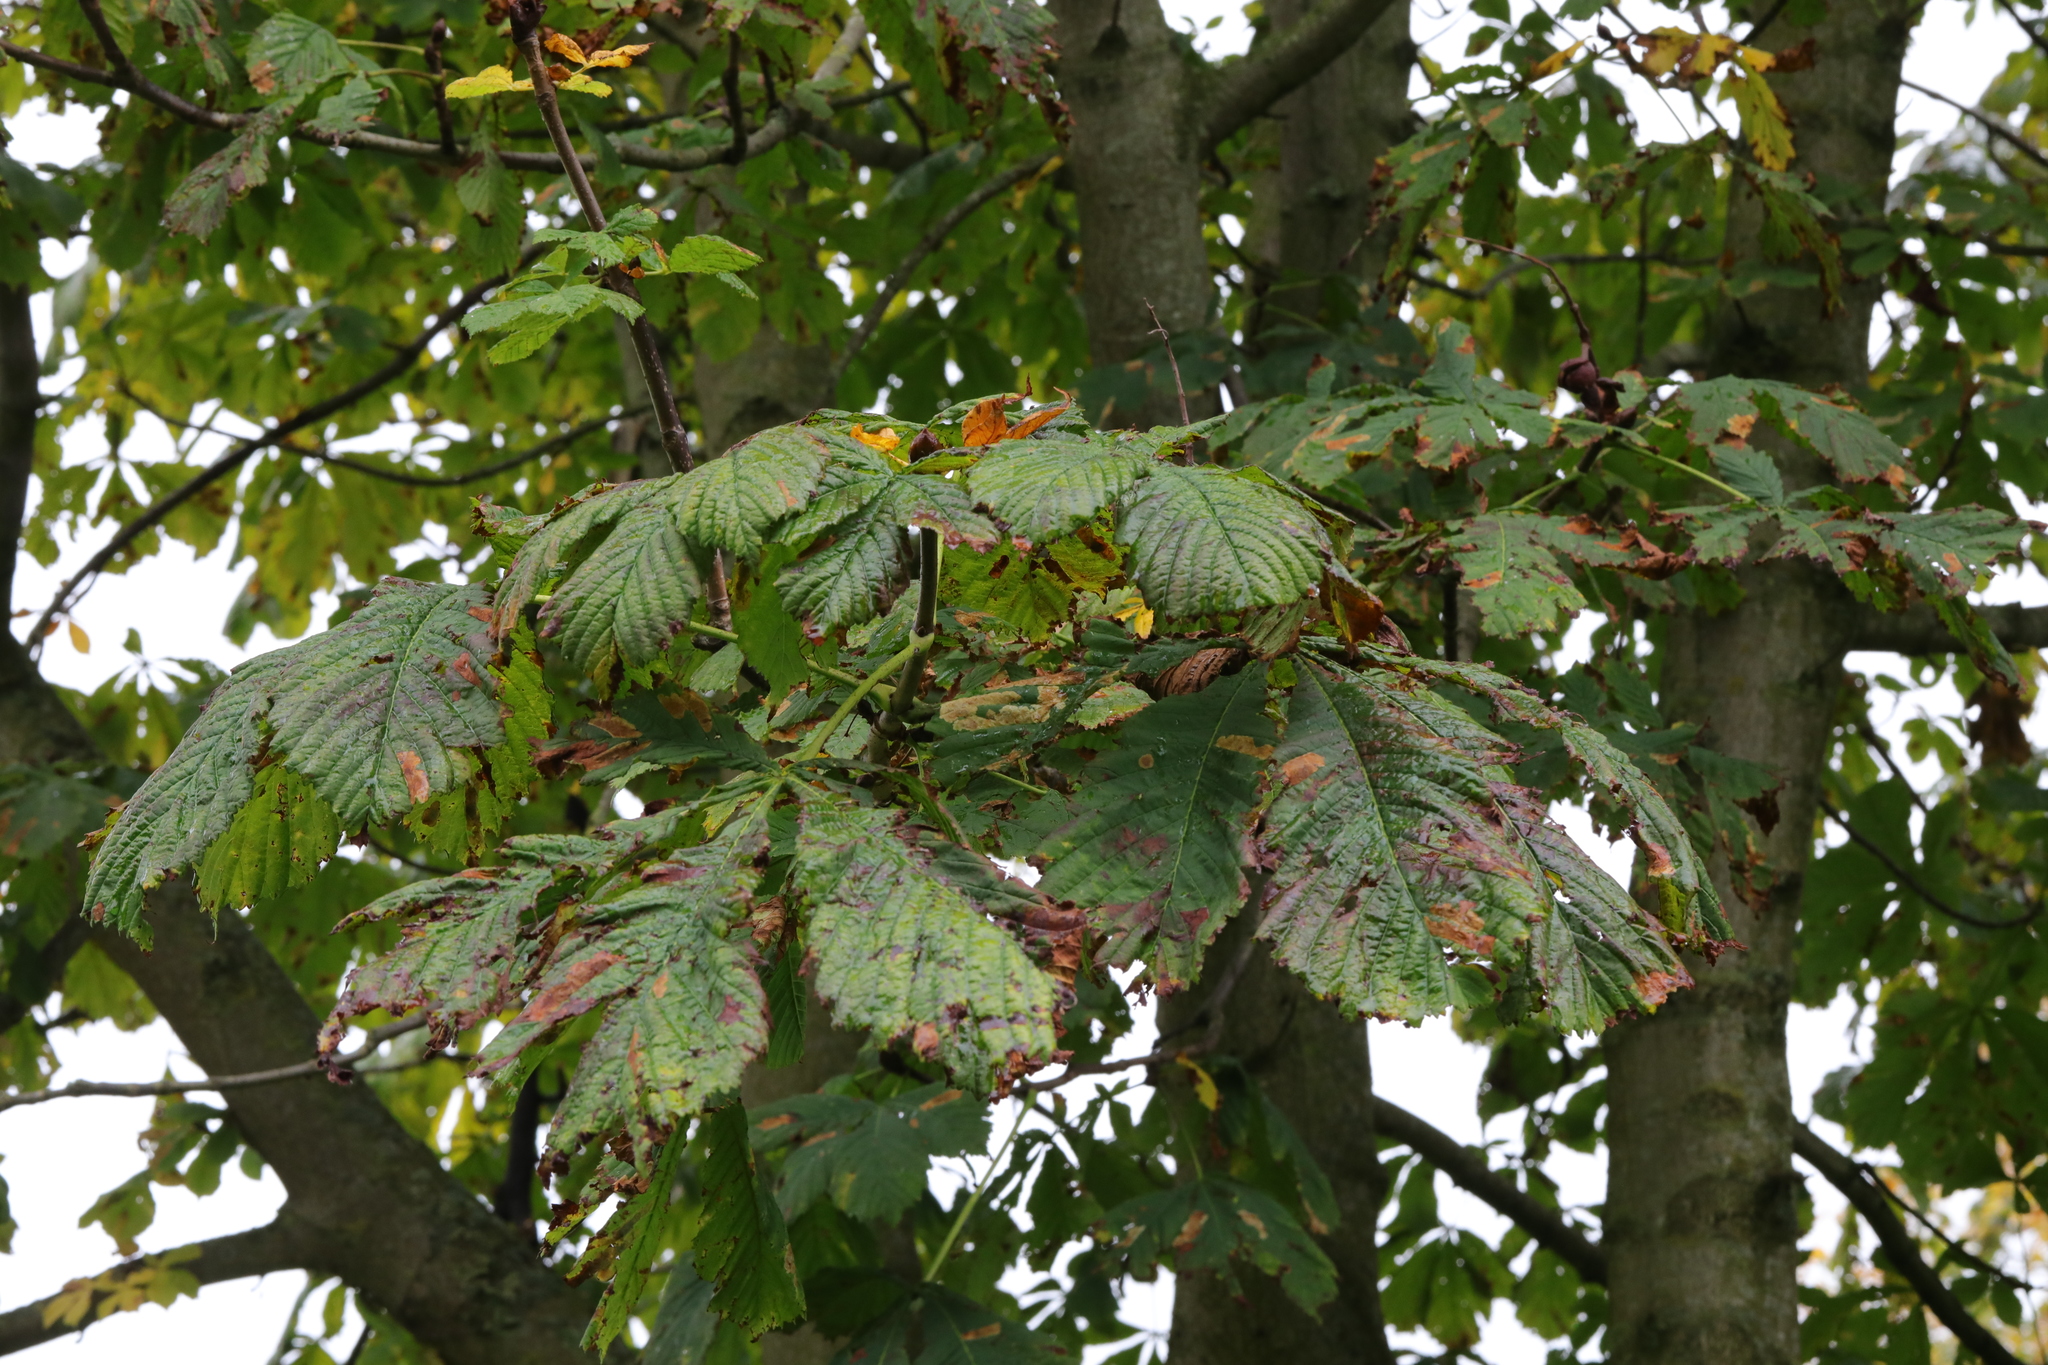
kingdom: Animalia
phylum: Arthropoda
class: Insecta
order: Lepidoptera
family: Gracillariidae
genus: Cameraria
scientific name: Cameraria ohridella
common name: Horse-chestnut leaf-miner
